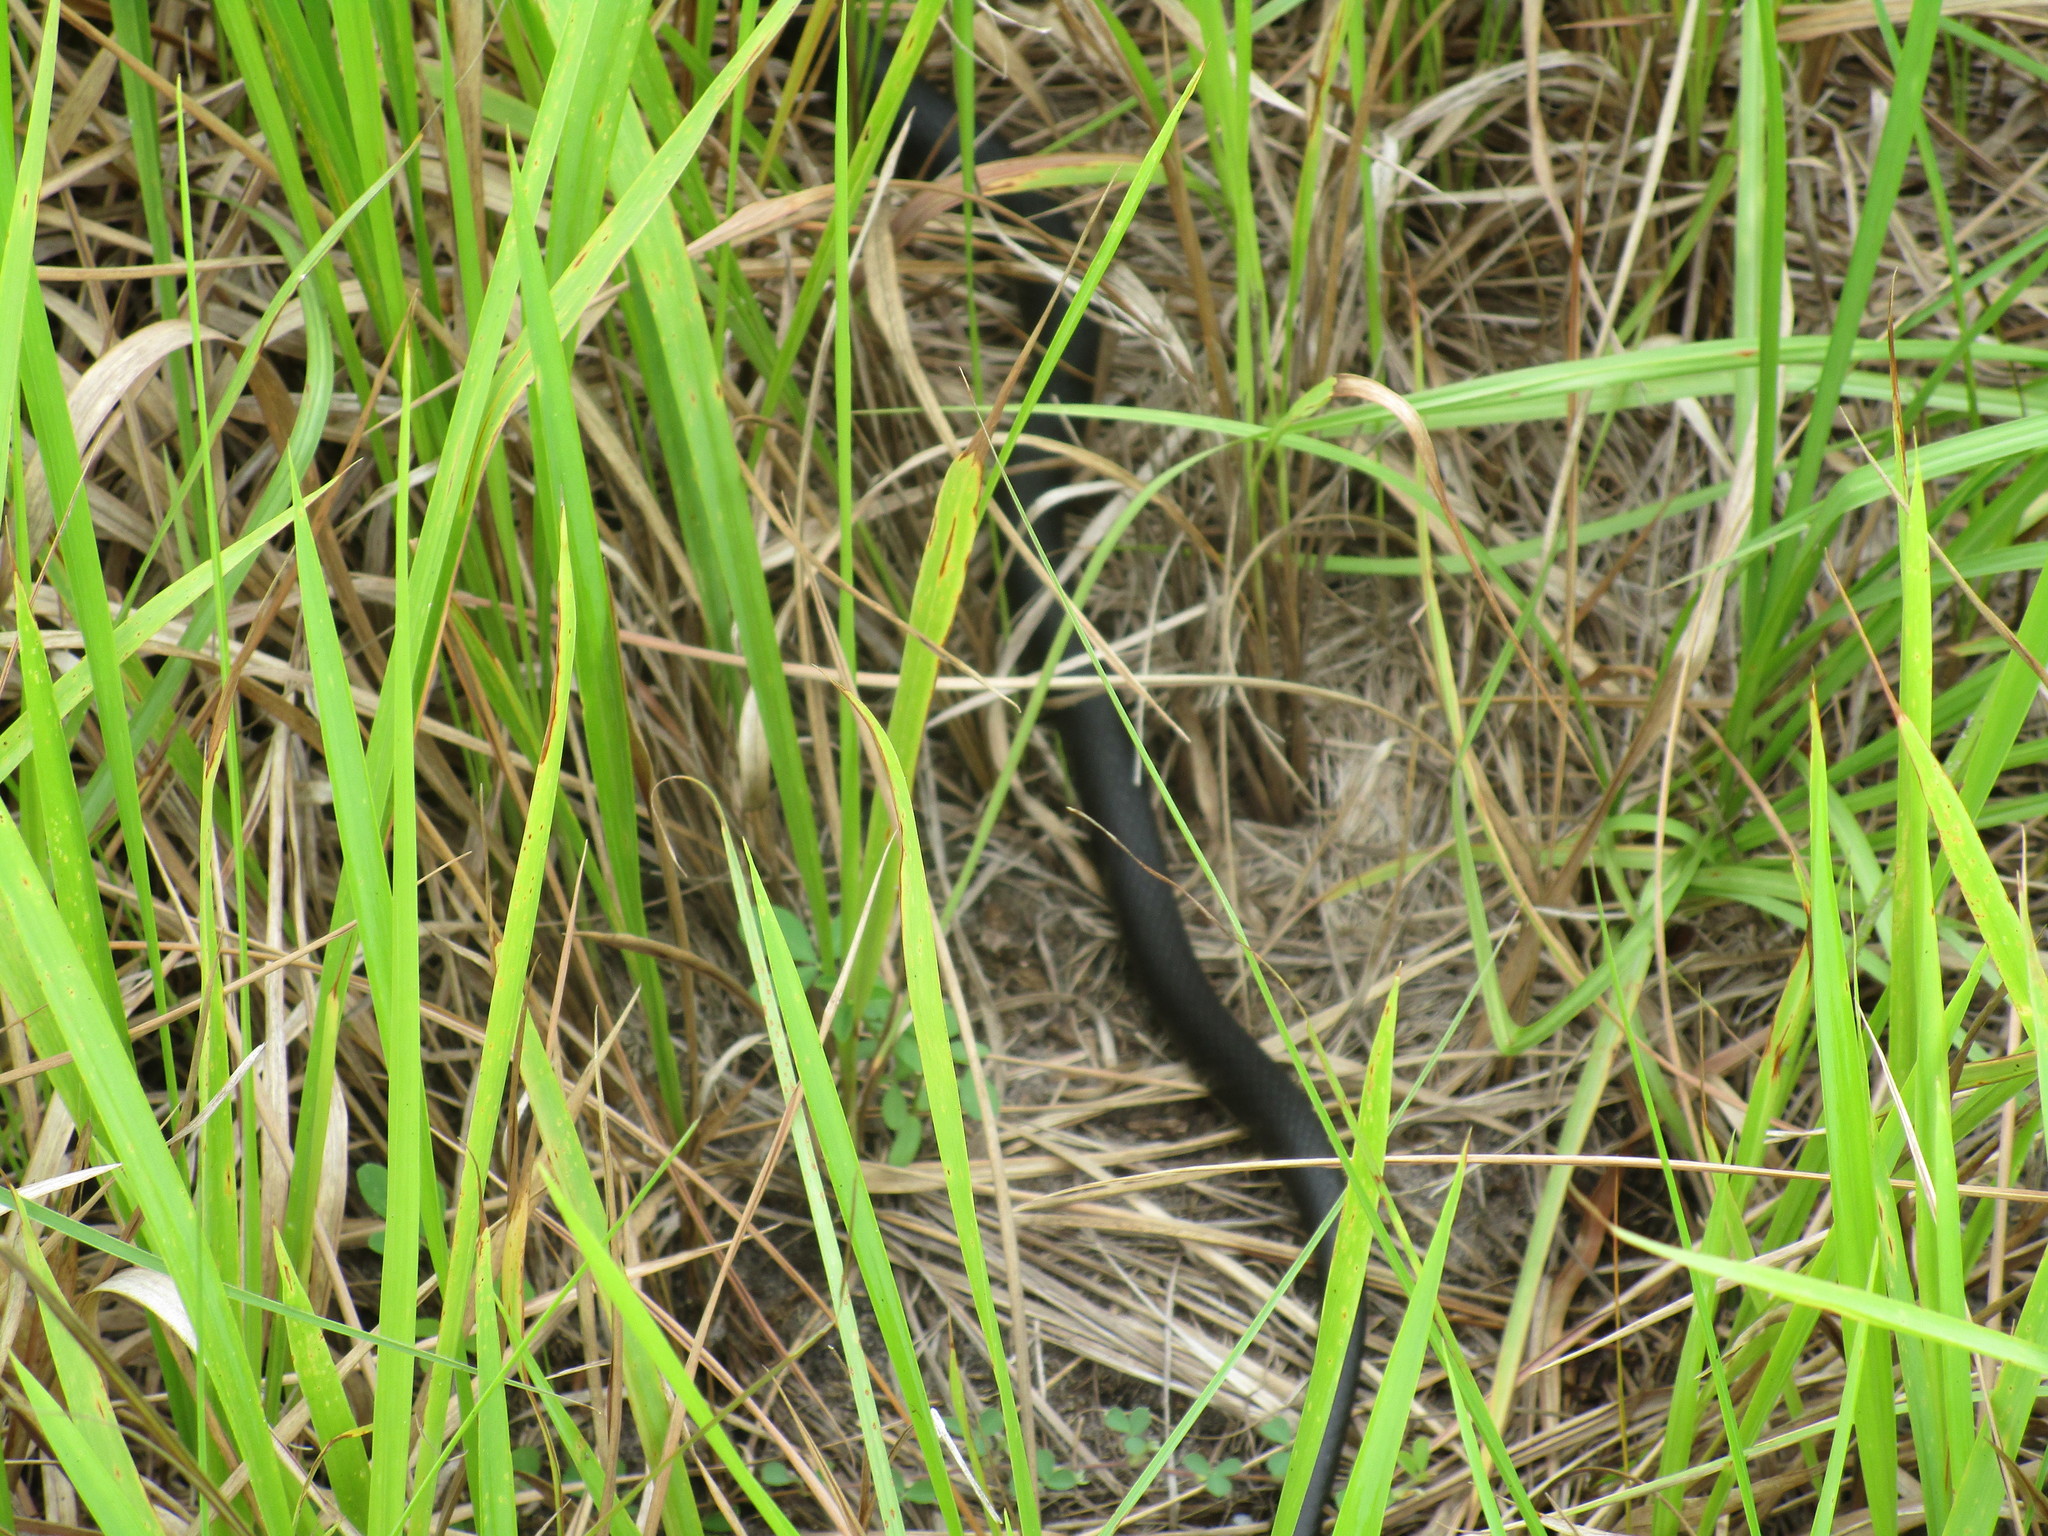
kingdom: Animalia
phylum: Chordata
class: Squamata
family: Colubridae
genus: Coluber
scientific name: Coluber constrictor
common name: Eastern racer
